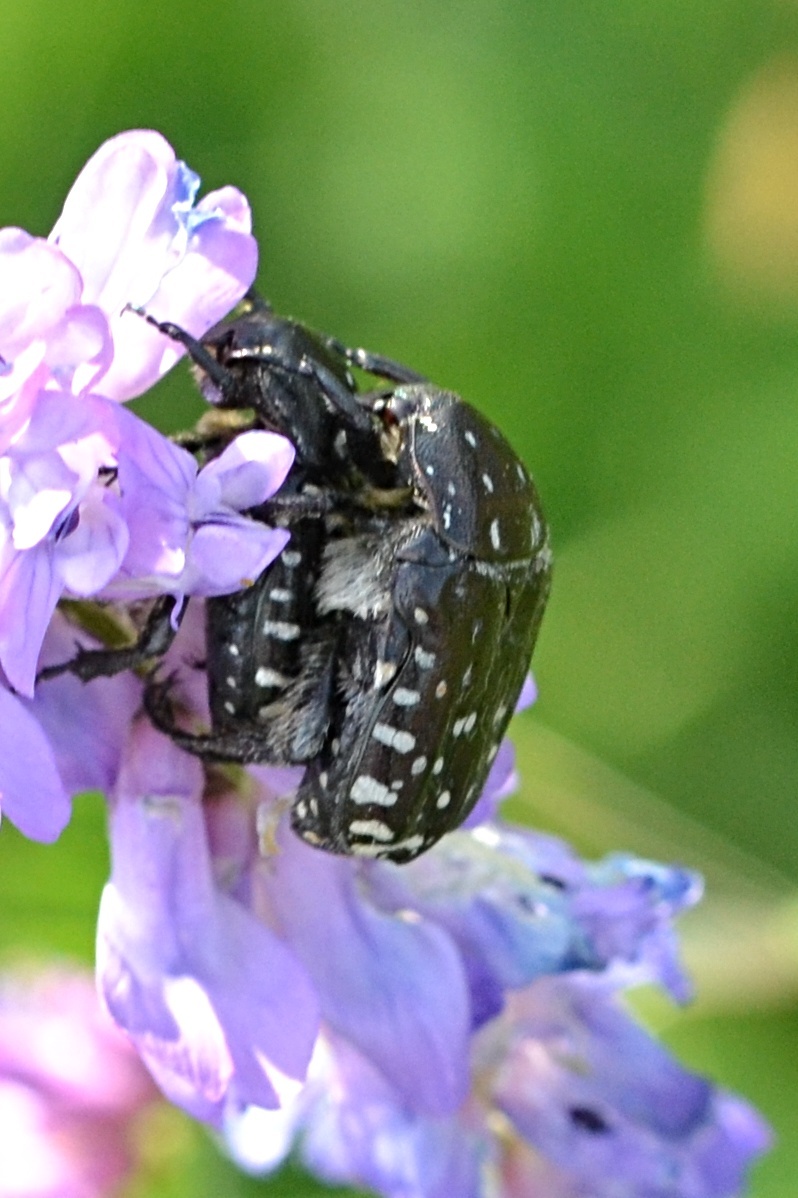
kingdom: Animalia
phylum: Arthropoda
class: Insecta
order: Coleoptera
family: Scarabaeidae
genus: Oxythyrea
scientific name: Oxythyrea funesta
